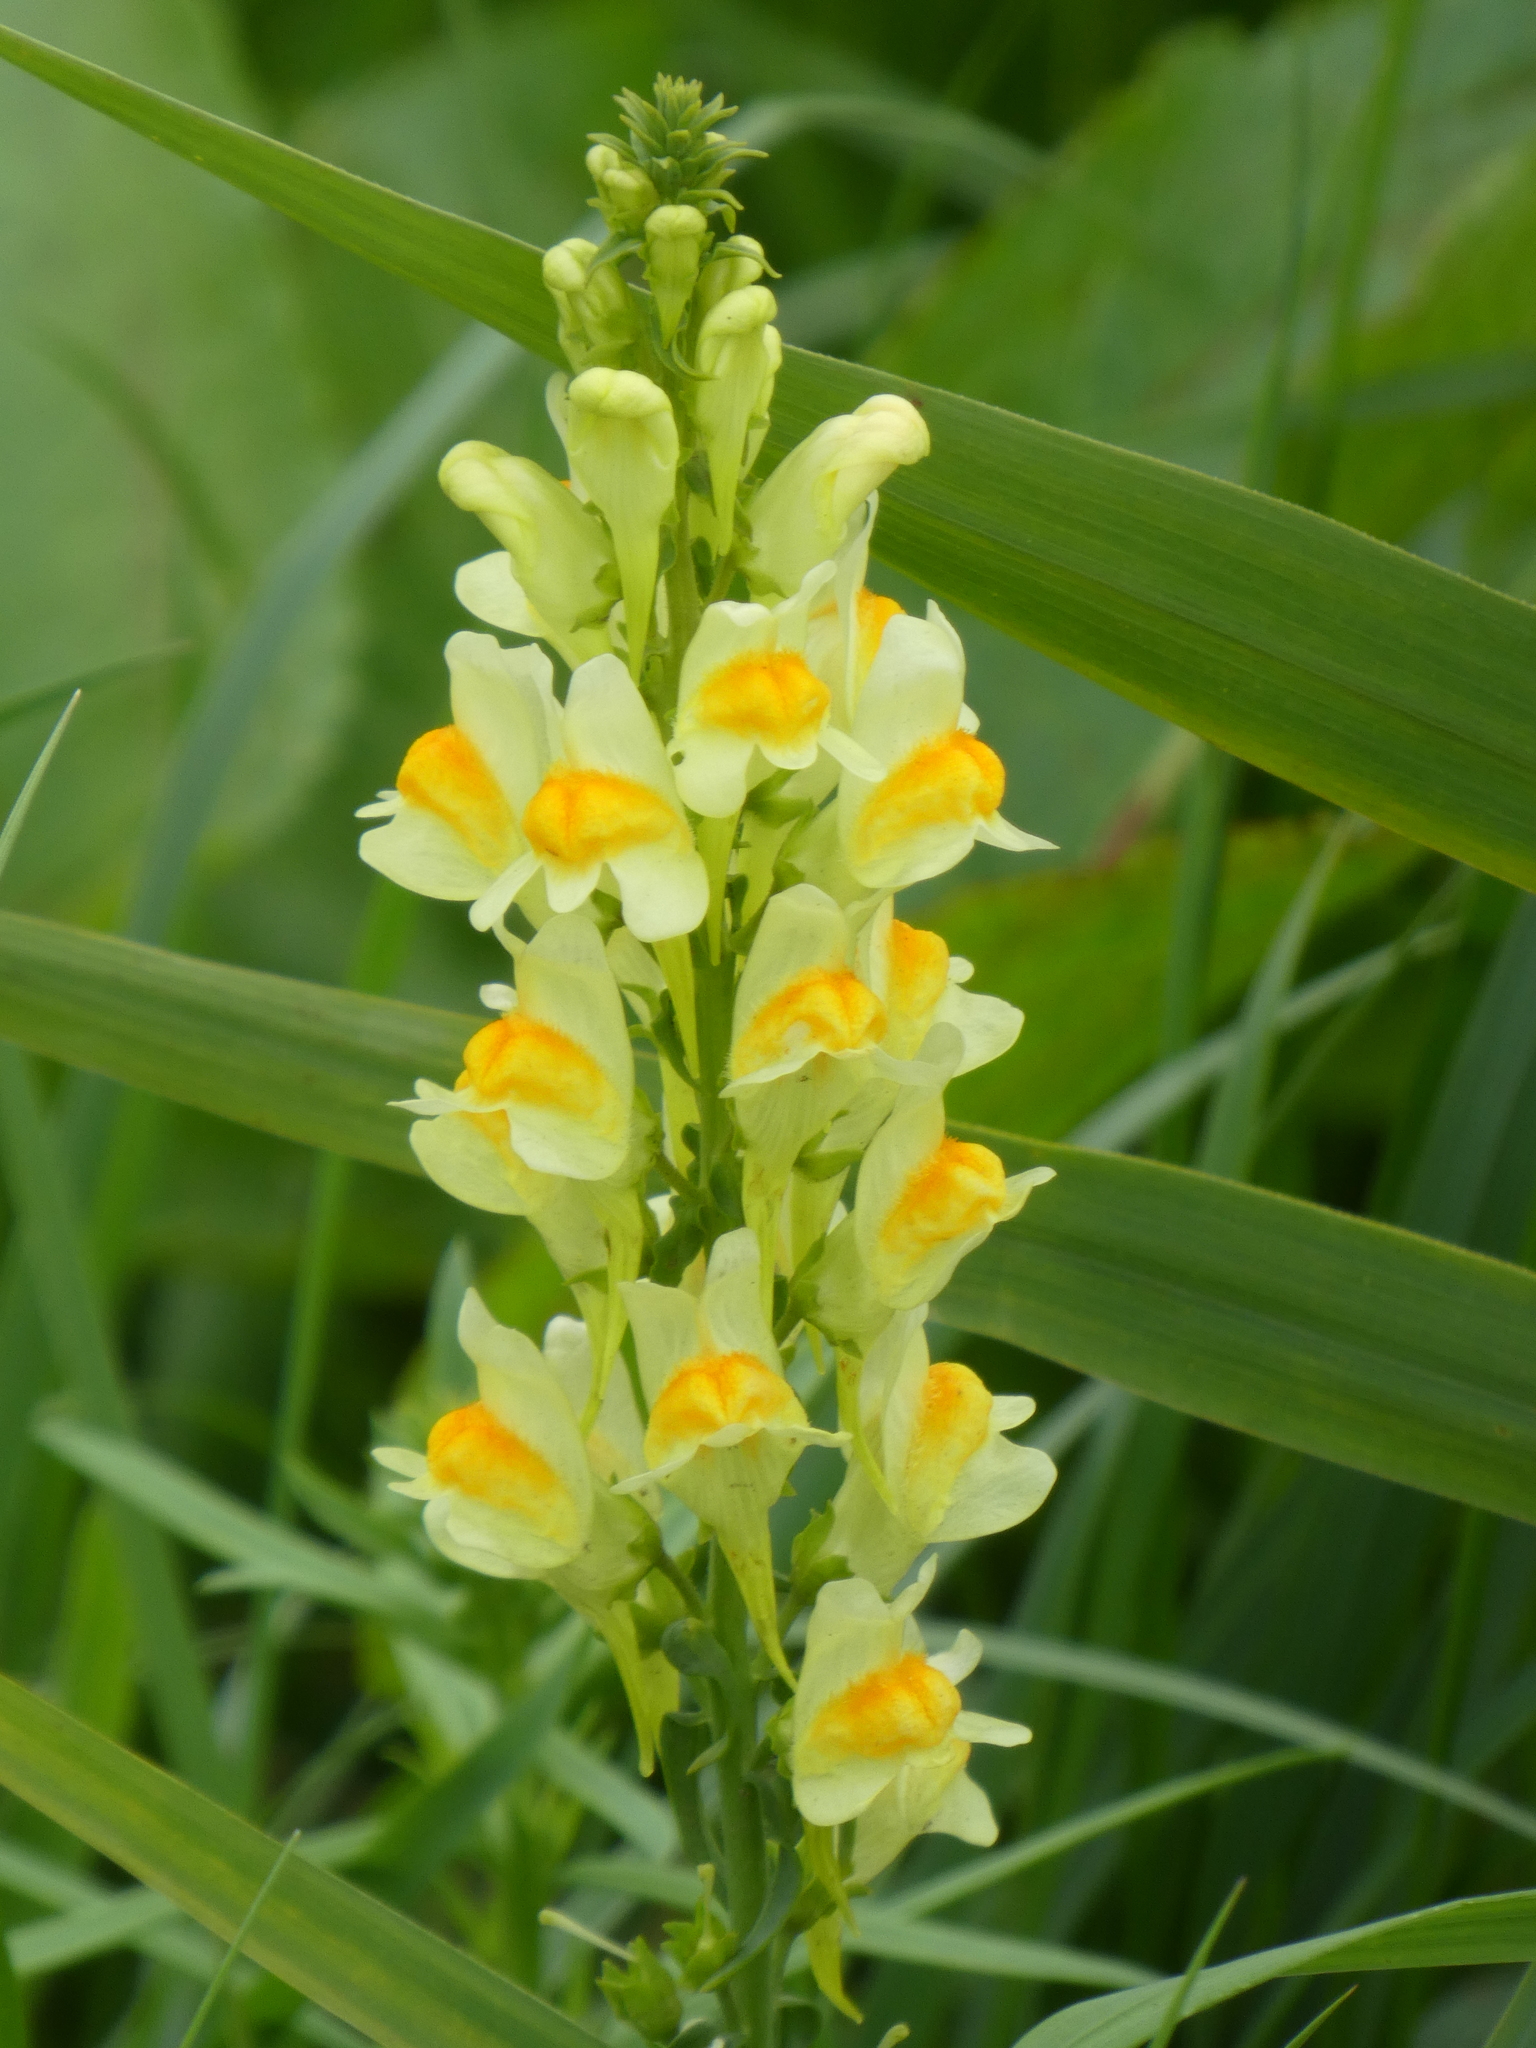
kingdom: Plantae
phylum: Tracheophyta
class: Magnoliopsida
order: Lamiales
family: Plantaginaceae
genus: Linaria
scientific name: Linaria vulgaris
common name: Butter and eggs
